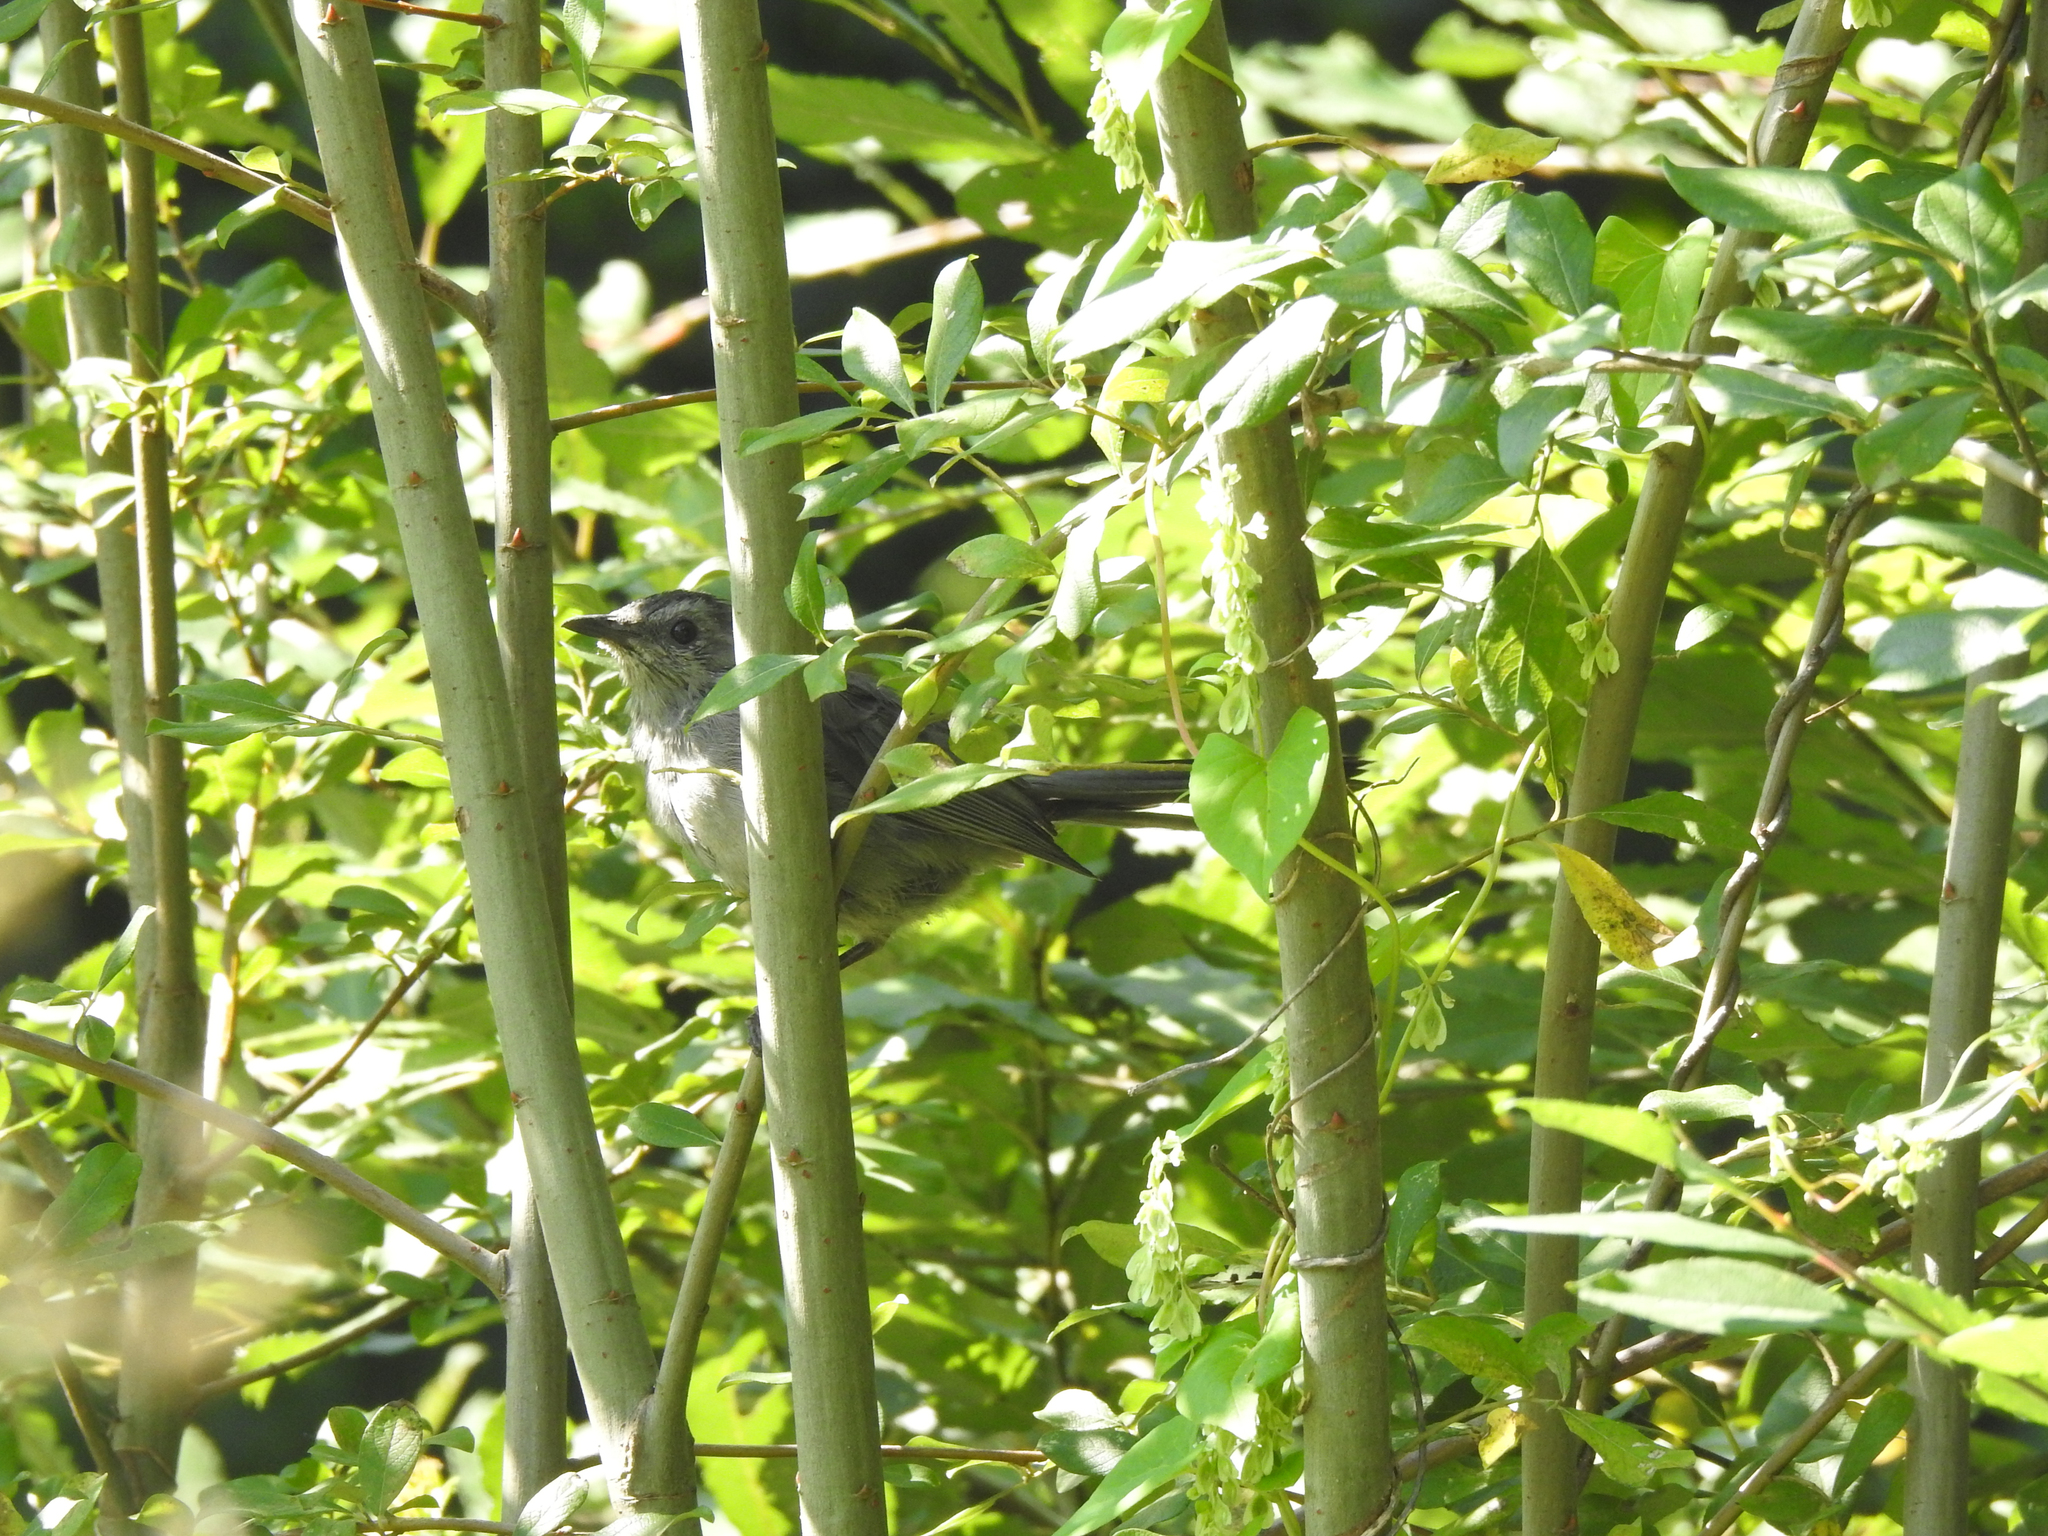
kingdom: Animalia
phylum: Chordata
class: Aves
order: Passeriformes
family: Mimidae
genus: Dumetella
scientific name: Dumetella carolinensis
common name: Gray catbird
